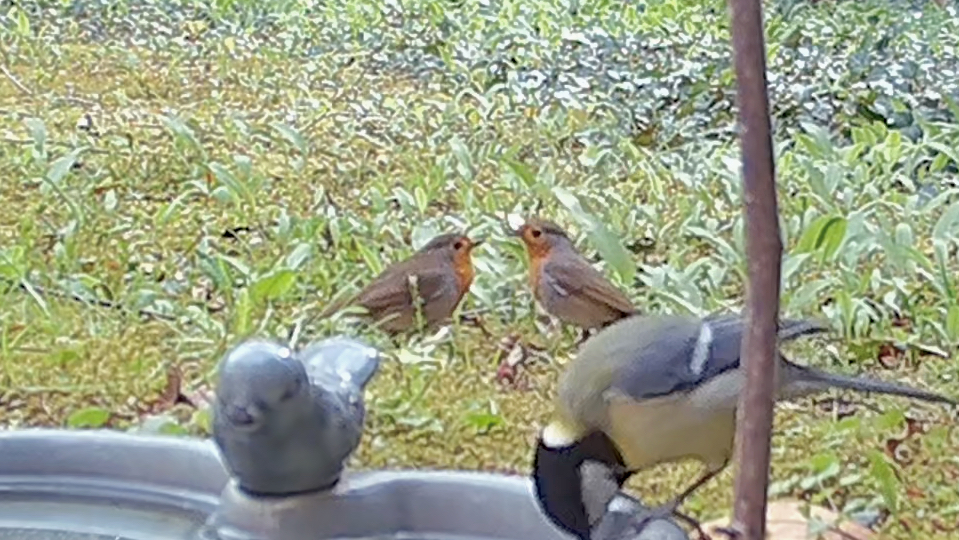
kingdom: Animalia
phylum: Chordata
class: Aves
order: Passeriformes
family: Muscicapidae
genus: Erithacus
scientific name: Erithacus rubecula
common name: European robin
